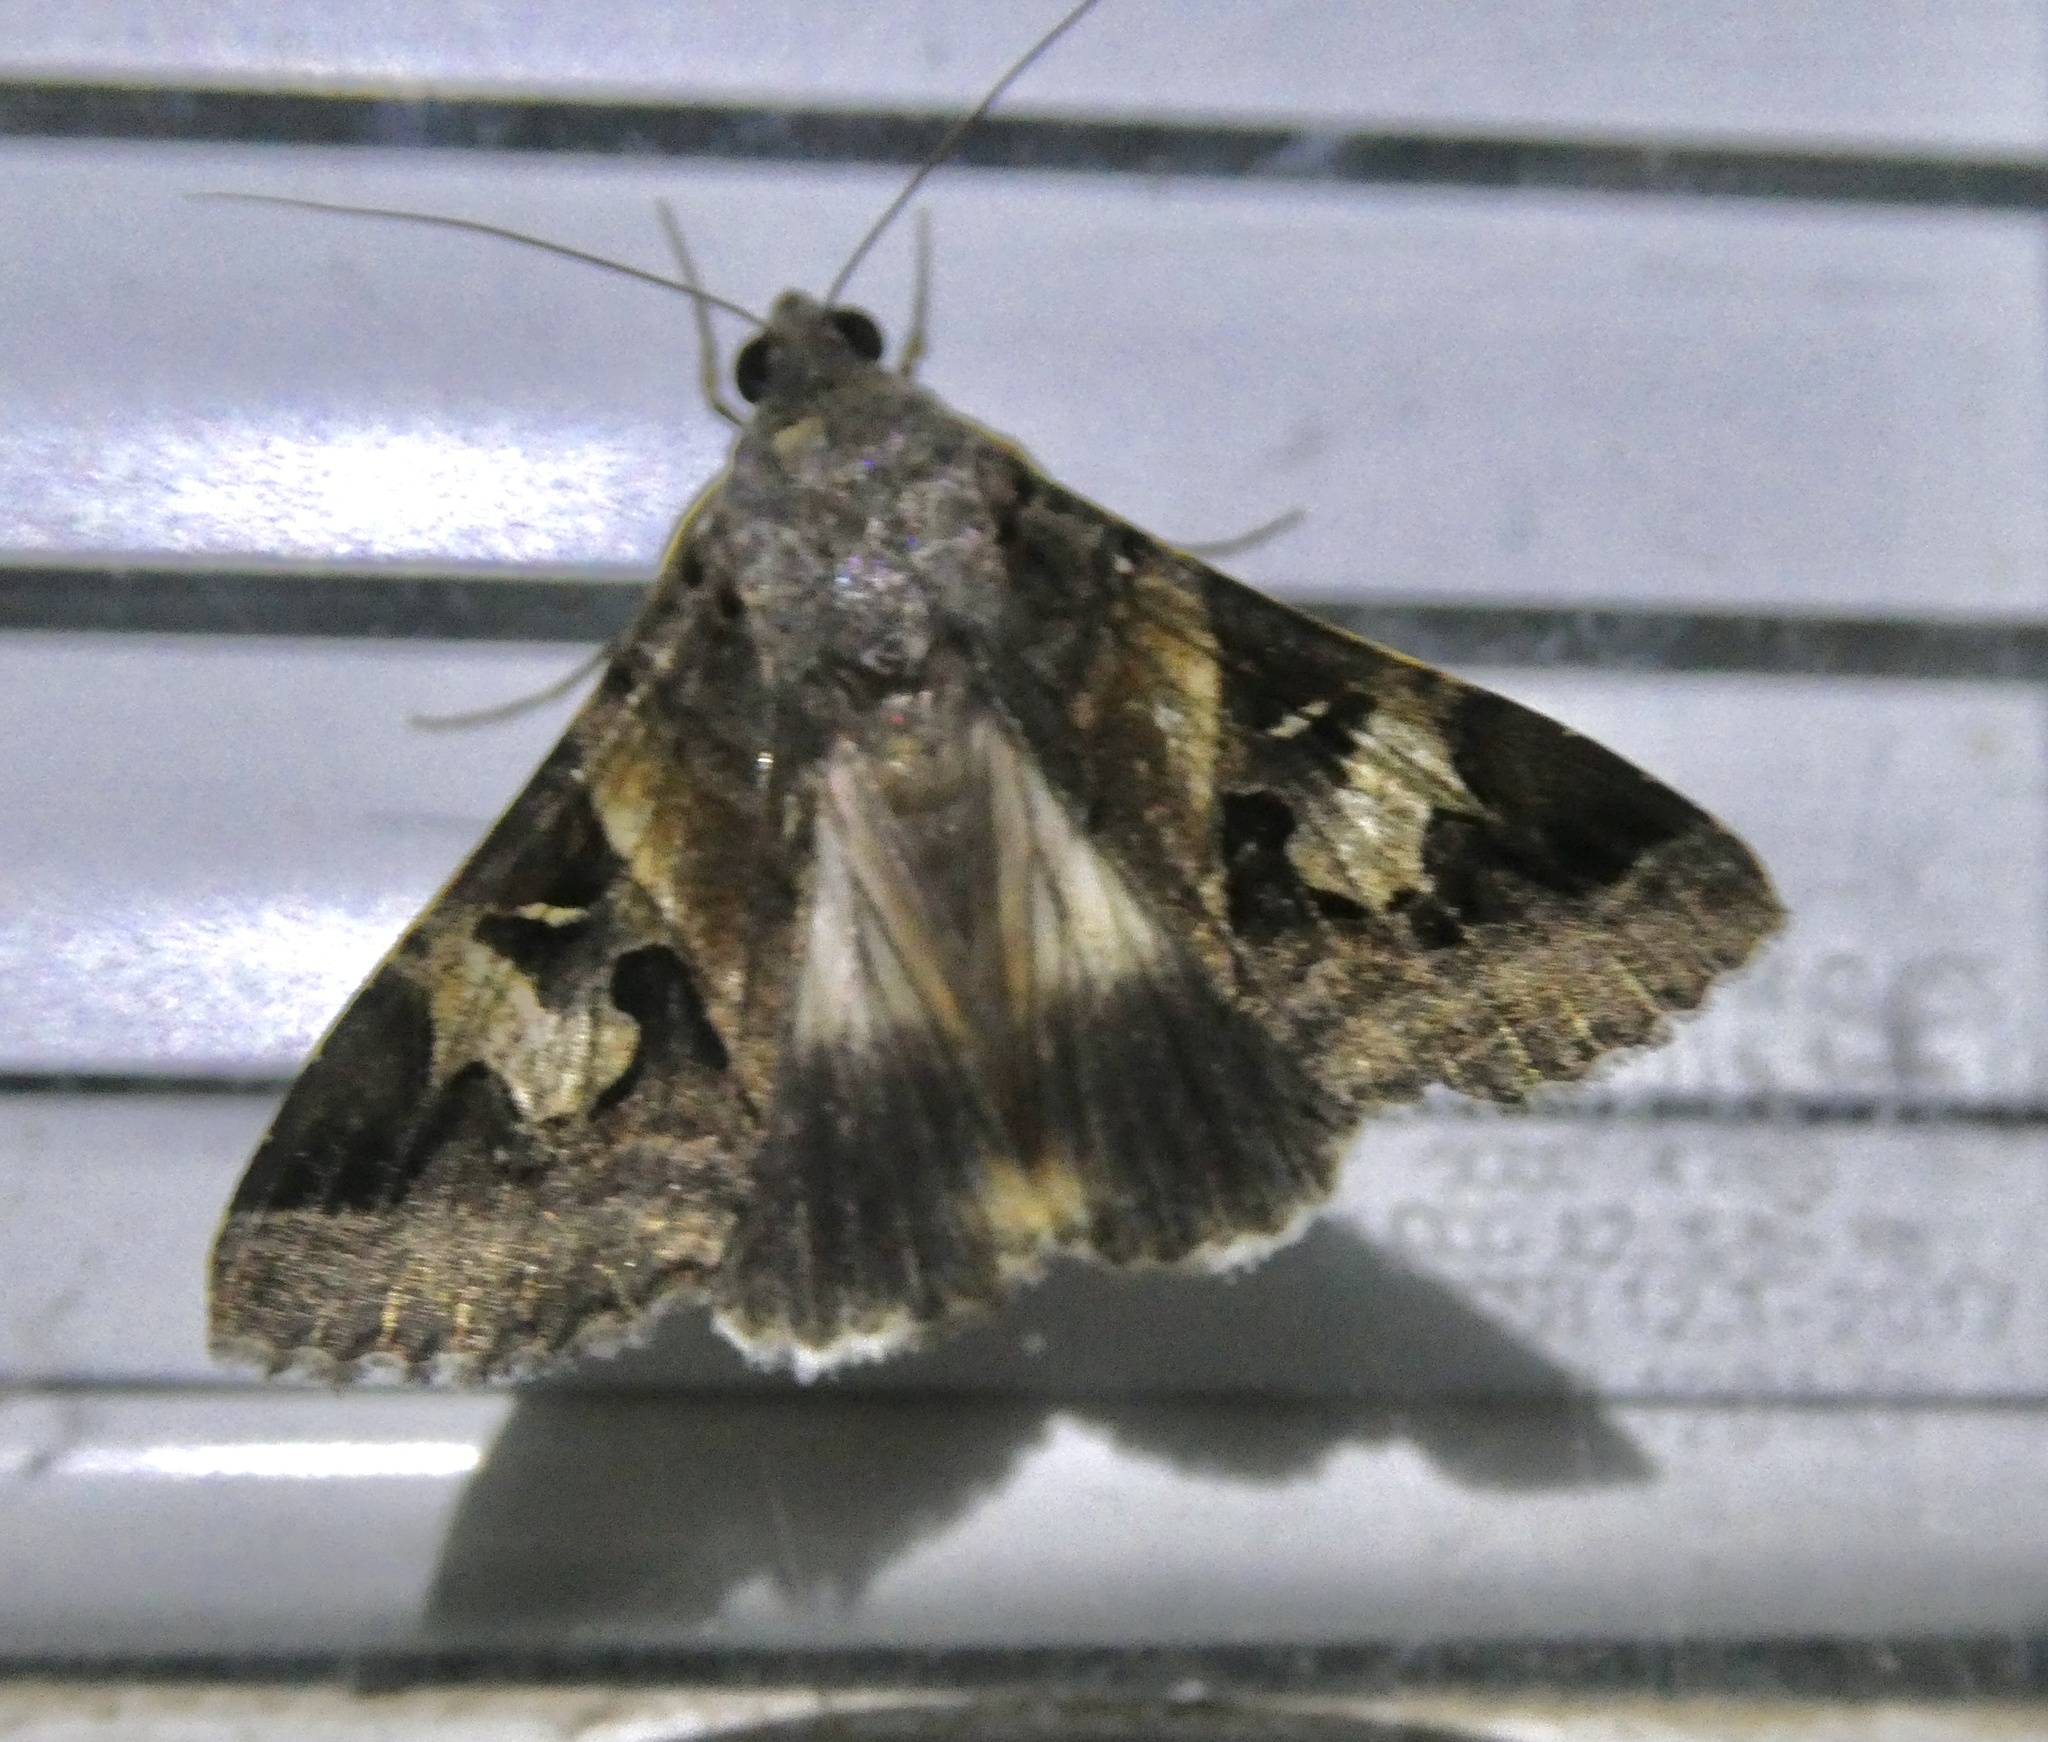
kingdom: Animalia
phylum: Arthropoda
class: Insecta
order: Lepidoptera
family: Erebidae
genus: Melipotis
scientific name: Melipotis indomita
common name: Moth
